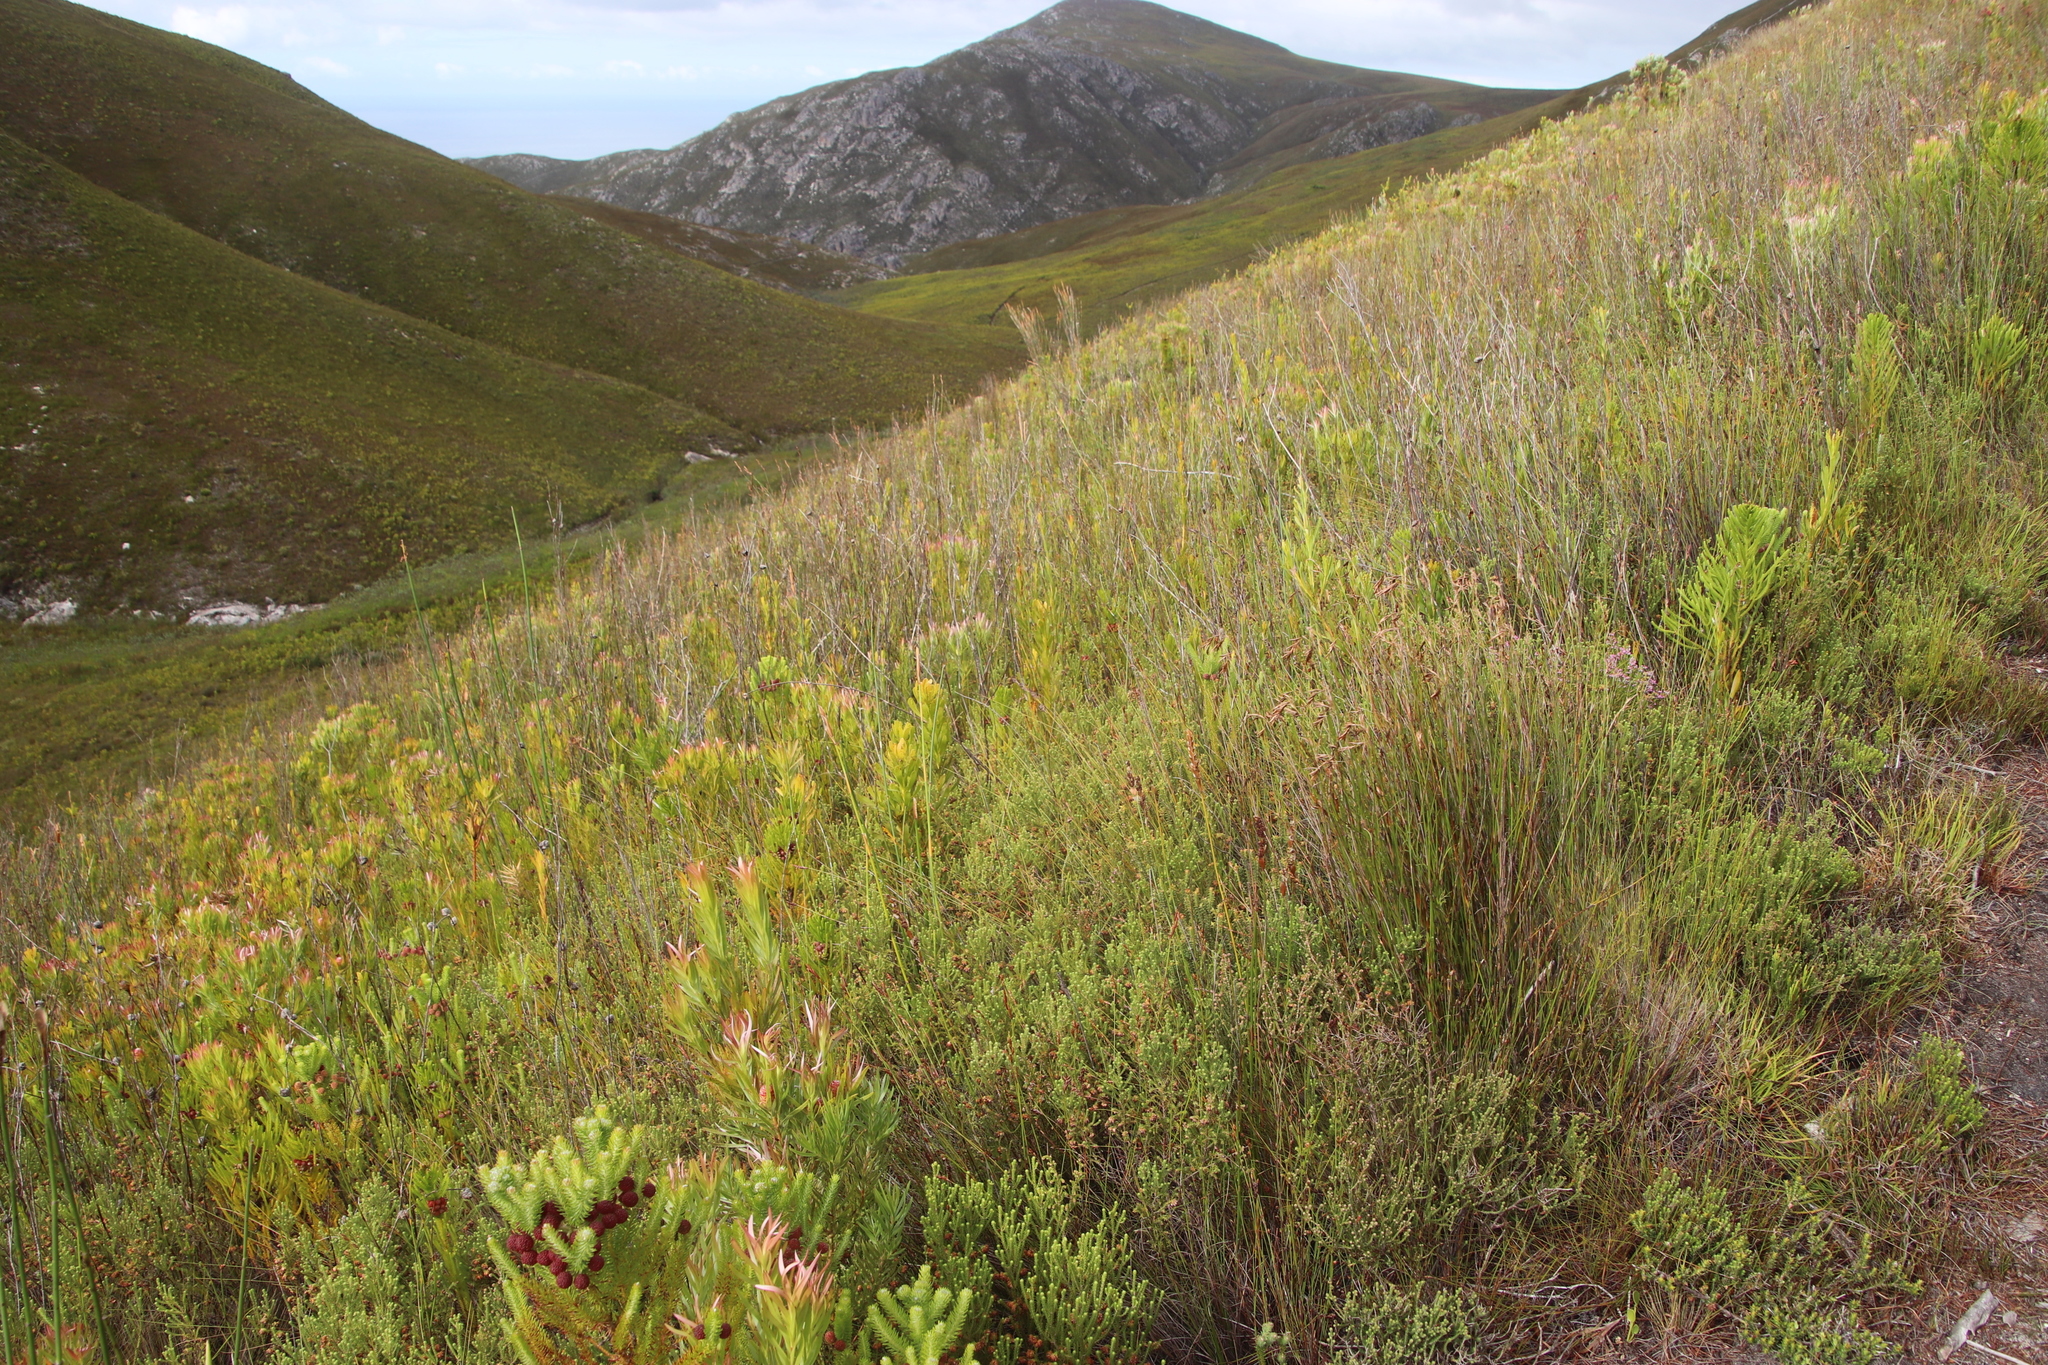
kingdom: Plantae
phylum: Tracheophyta
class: Magnoliopsida
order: Ericales
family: Ericaceae
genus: Erica
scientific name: Erica cumuliflora
